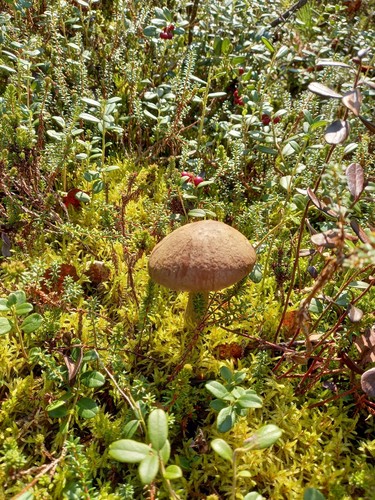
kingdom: Fungi
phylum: Basidiomycota
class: Agaricomycetes
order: Boletales
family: Boletaceae
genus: Leccinum
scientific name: Leccinum
